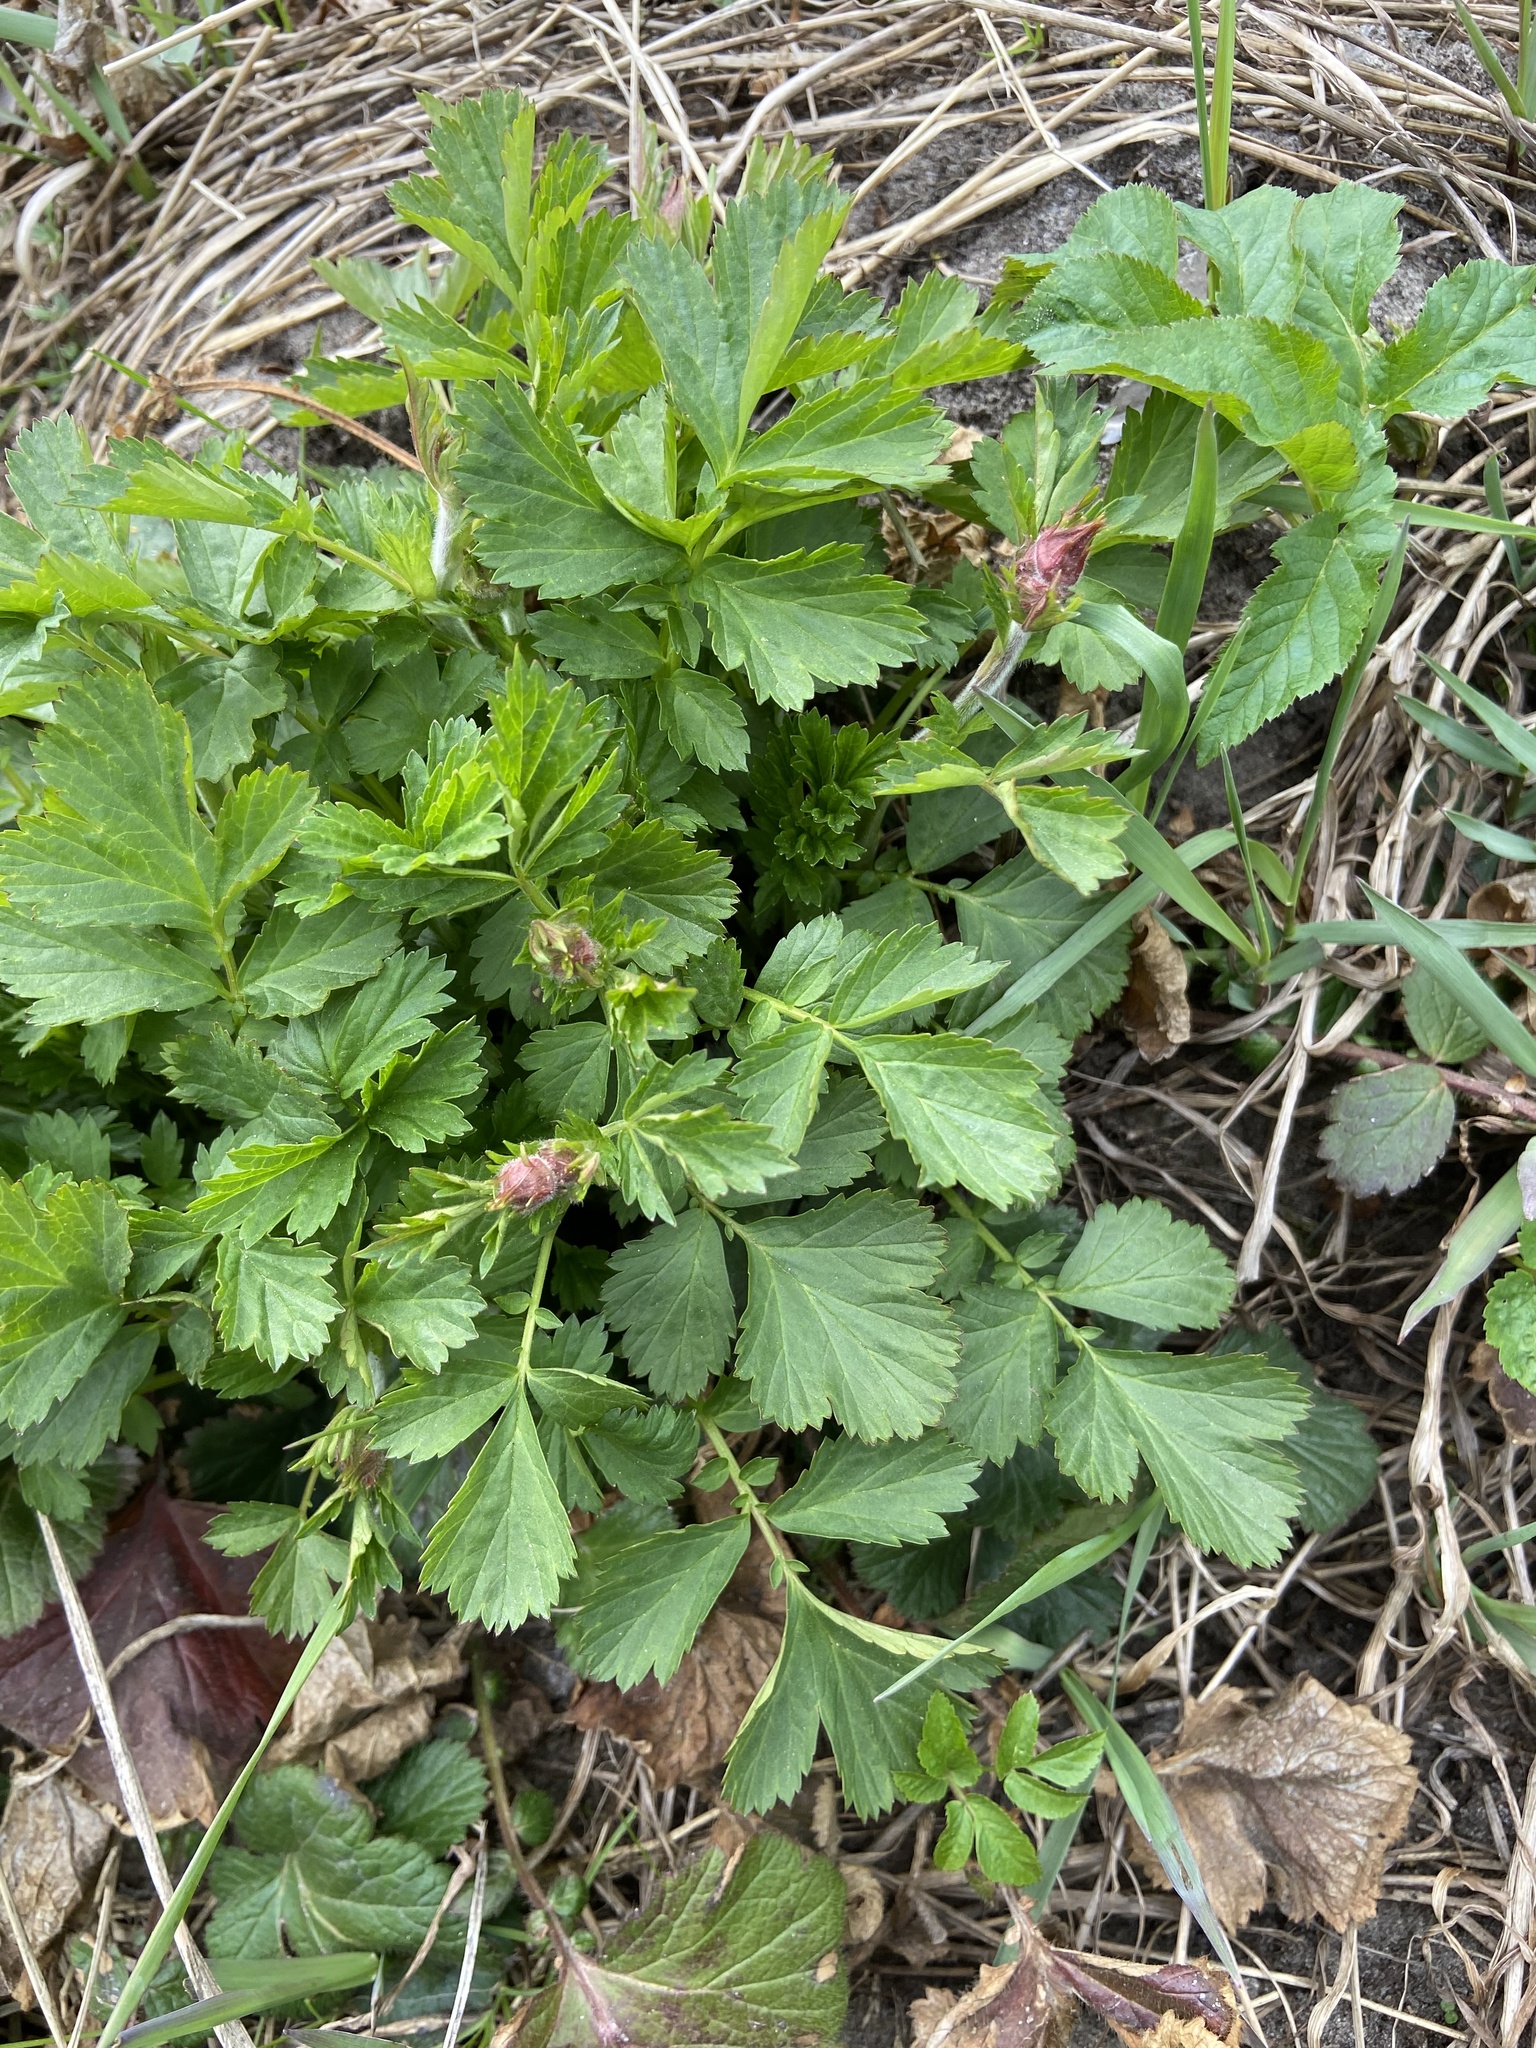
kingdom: Plantae
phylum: Tracheophyta
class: Magnoliopsida
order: Rosales
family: Rosaceae
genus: Geum
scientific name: Geum rivale
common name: Water avens
